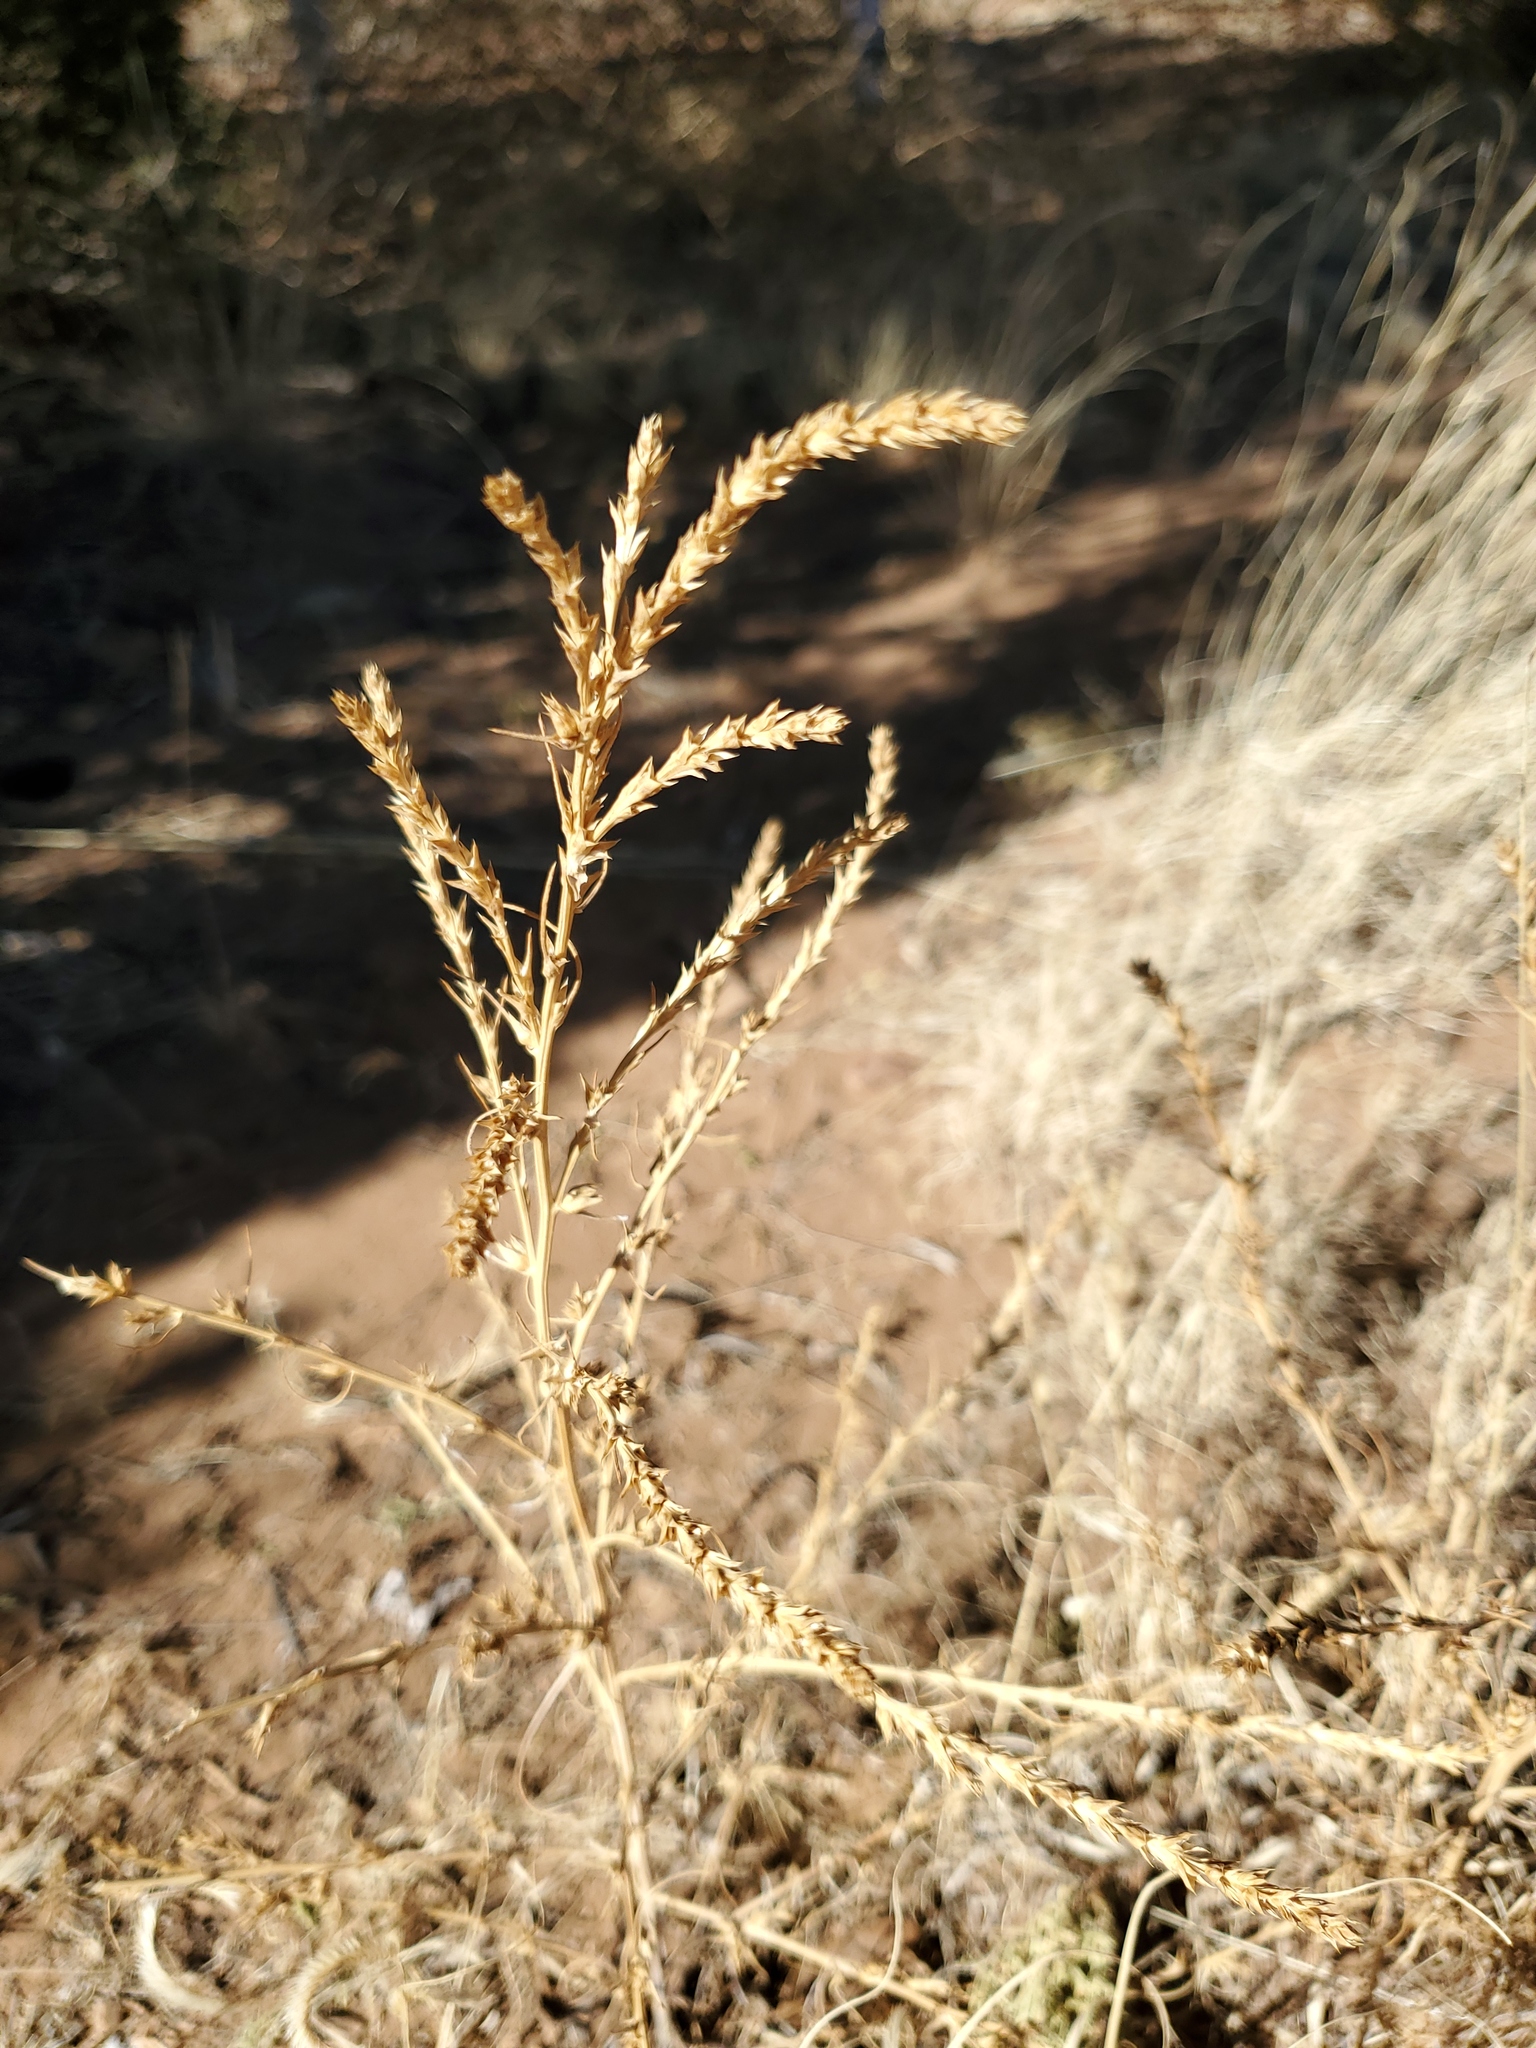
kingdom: Plantae
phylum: Tracheophyta
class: Magnoliopsida
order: Caryophyllales
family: Amaranthaceae
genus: Salsola
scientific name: Salsola tragus
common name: Prickly russian thistle
